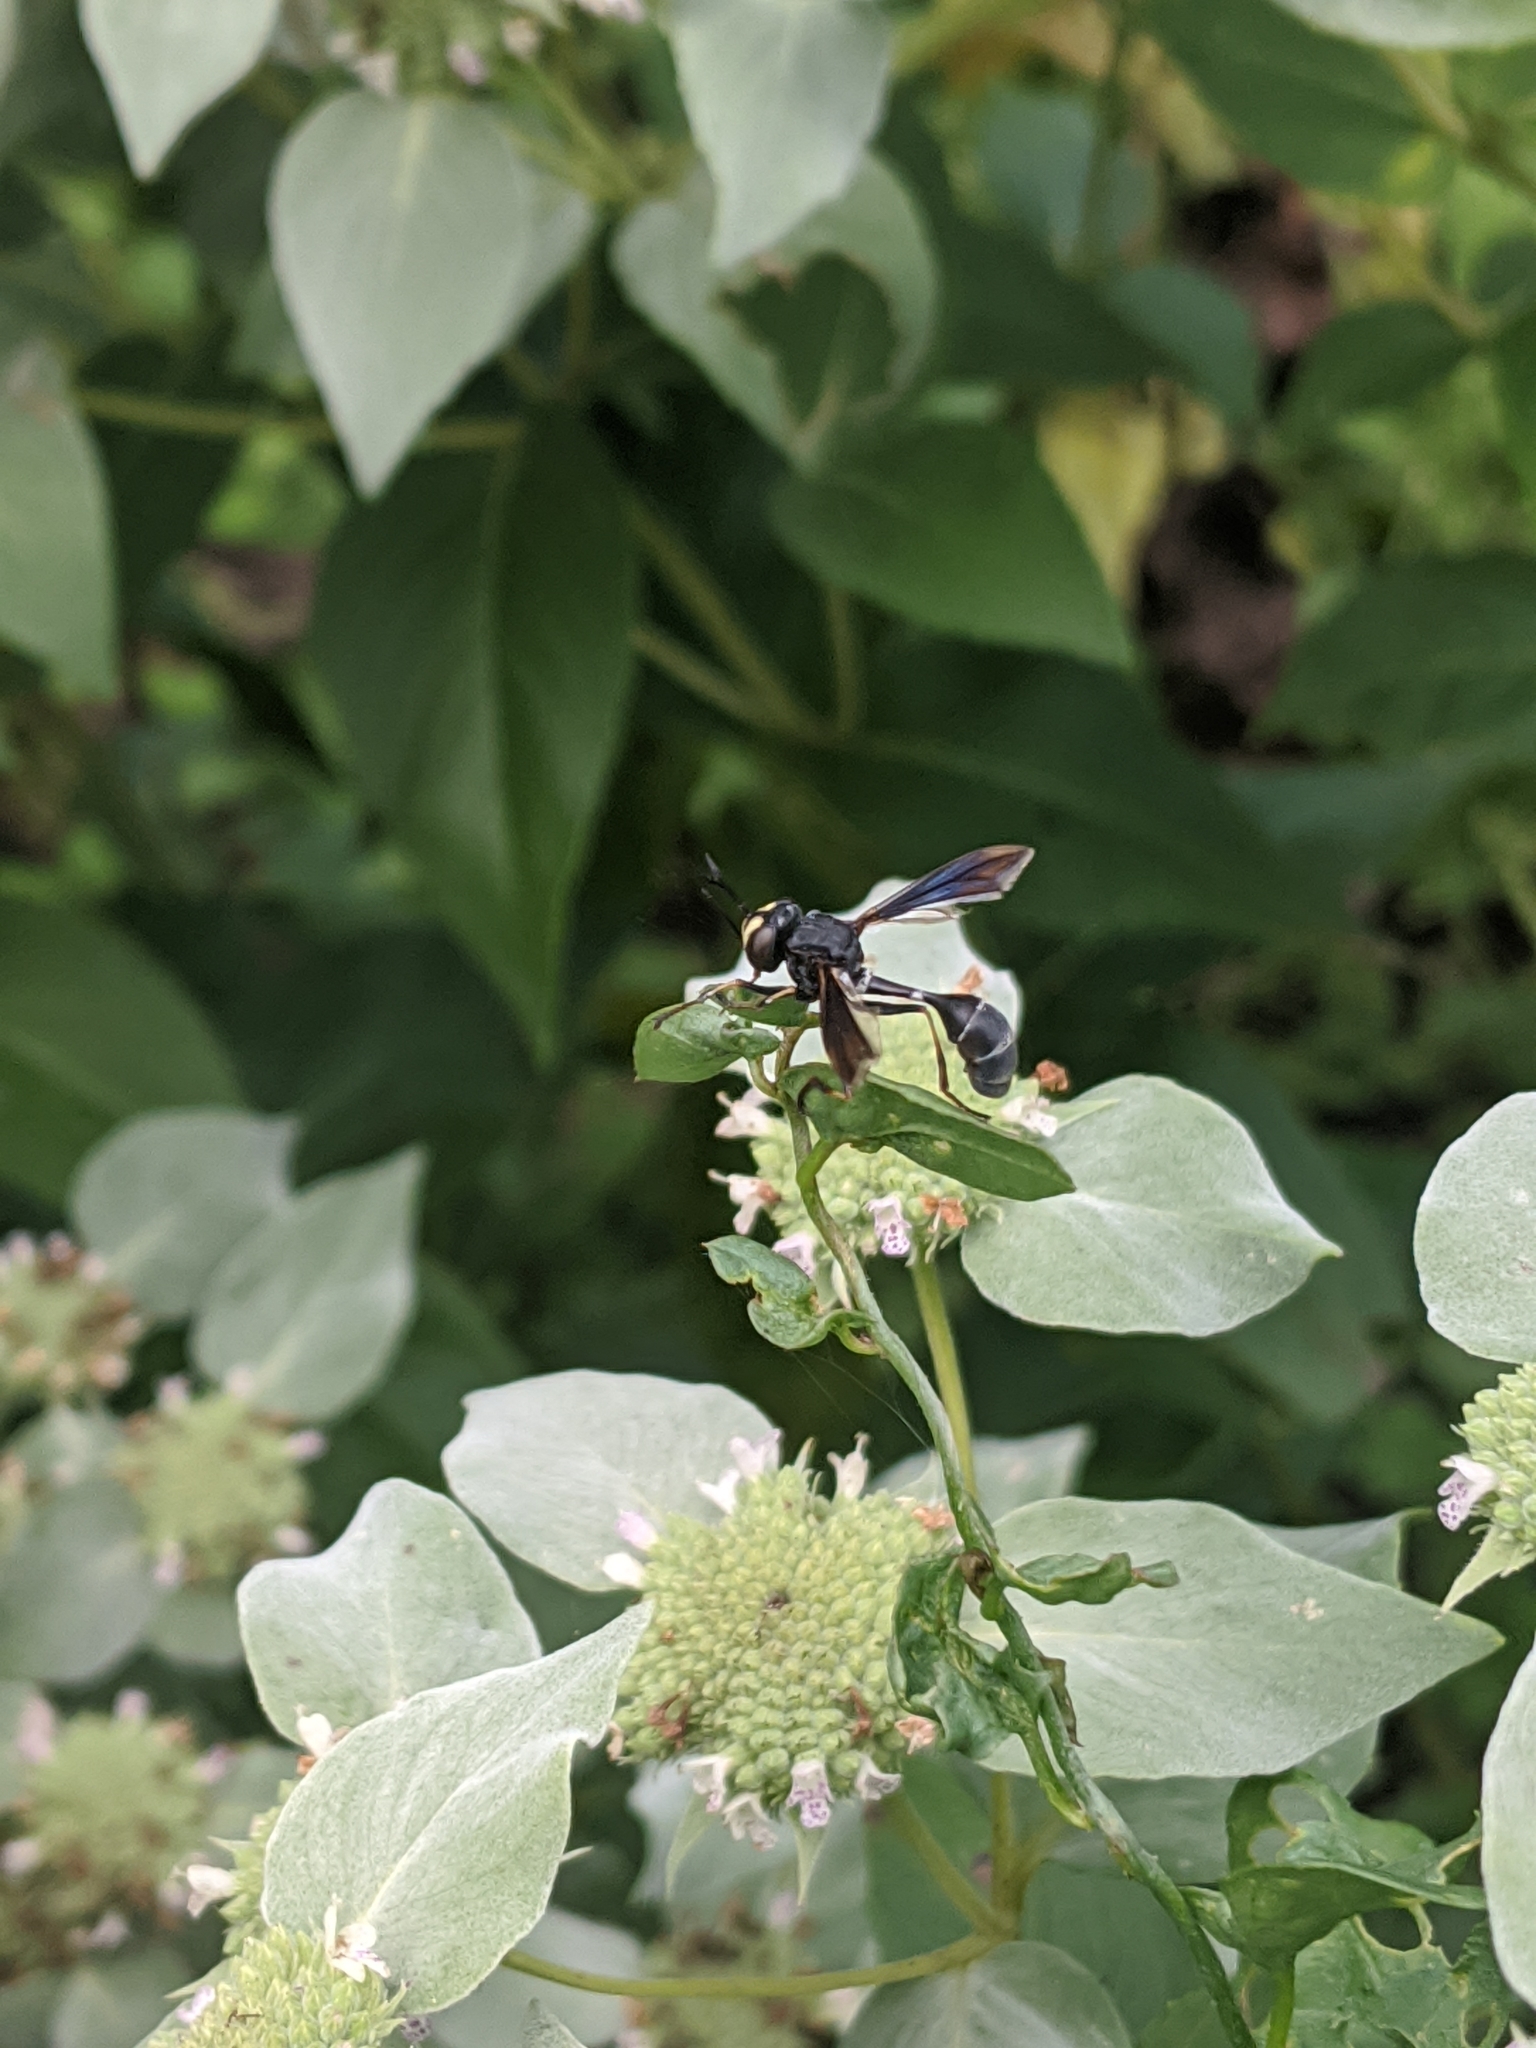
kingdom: Animalia
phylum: Arthropoda
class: Insecta
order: Diptera
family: Conopidae
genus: Physocephala
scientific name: Physocephala tibialis
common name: Common eastern physocephala
